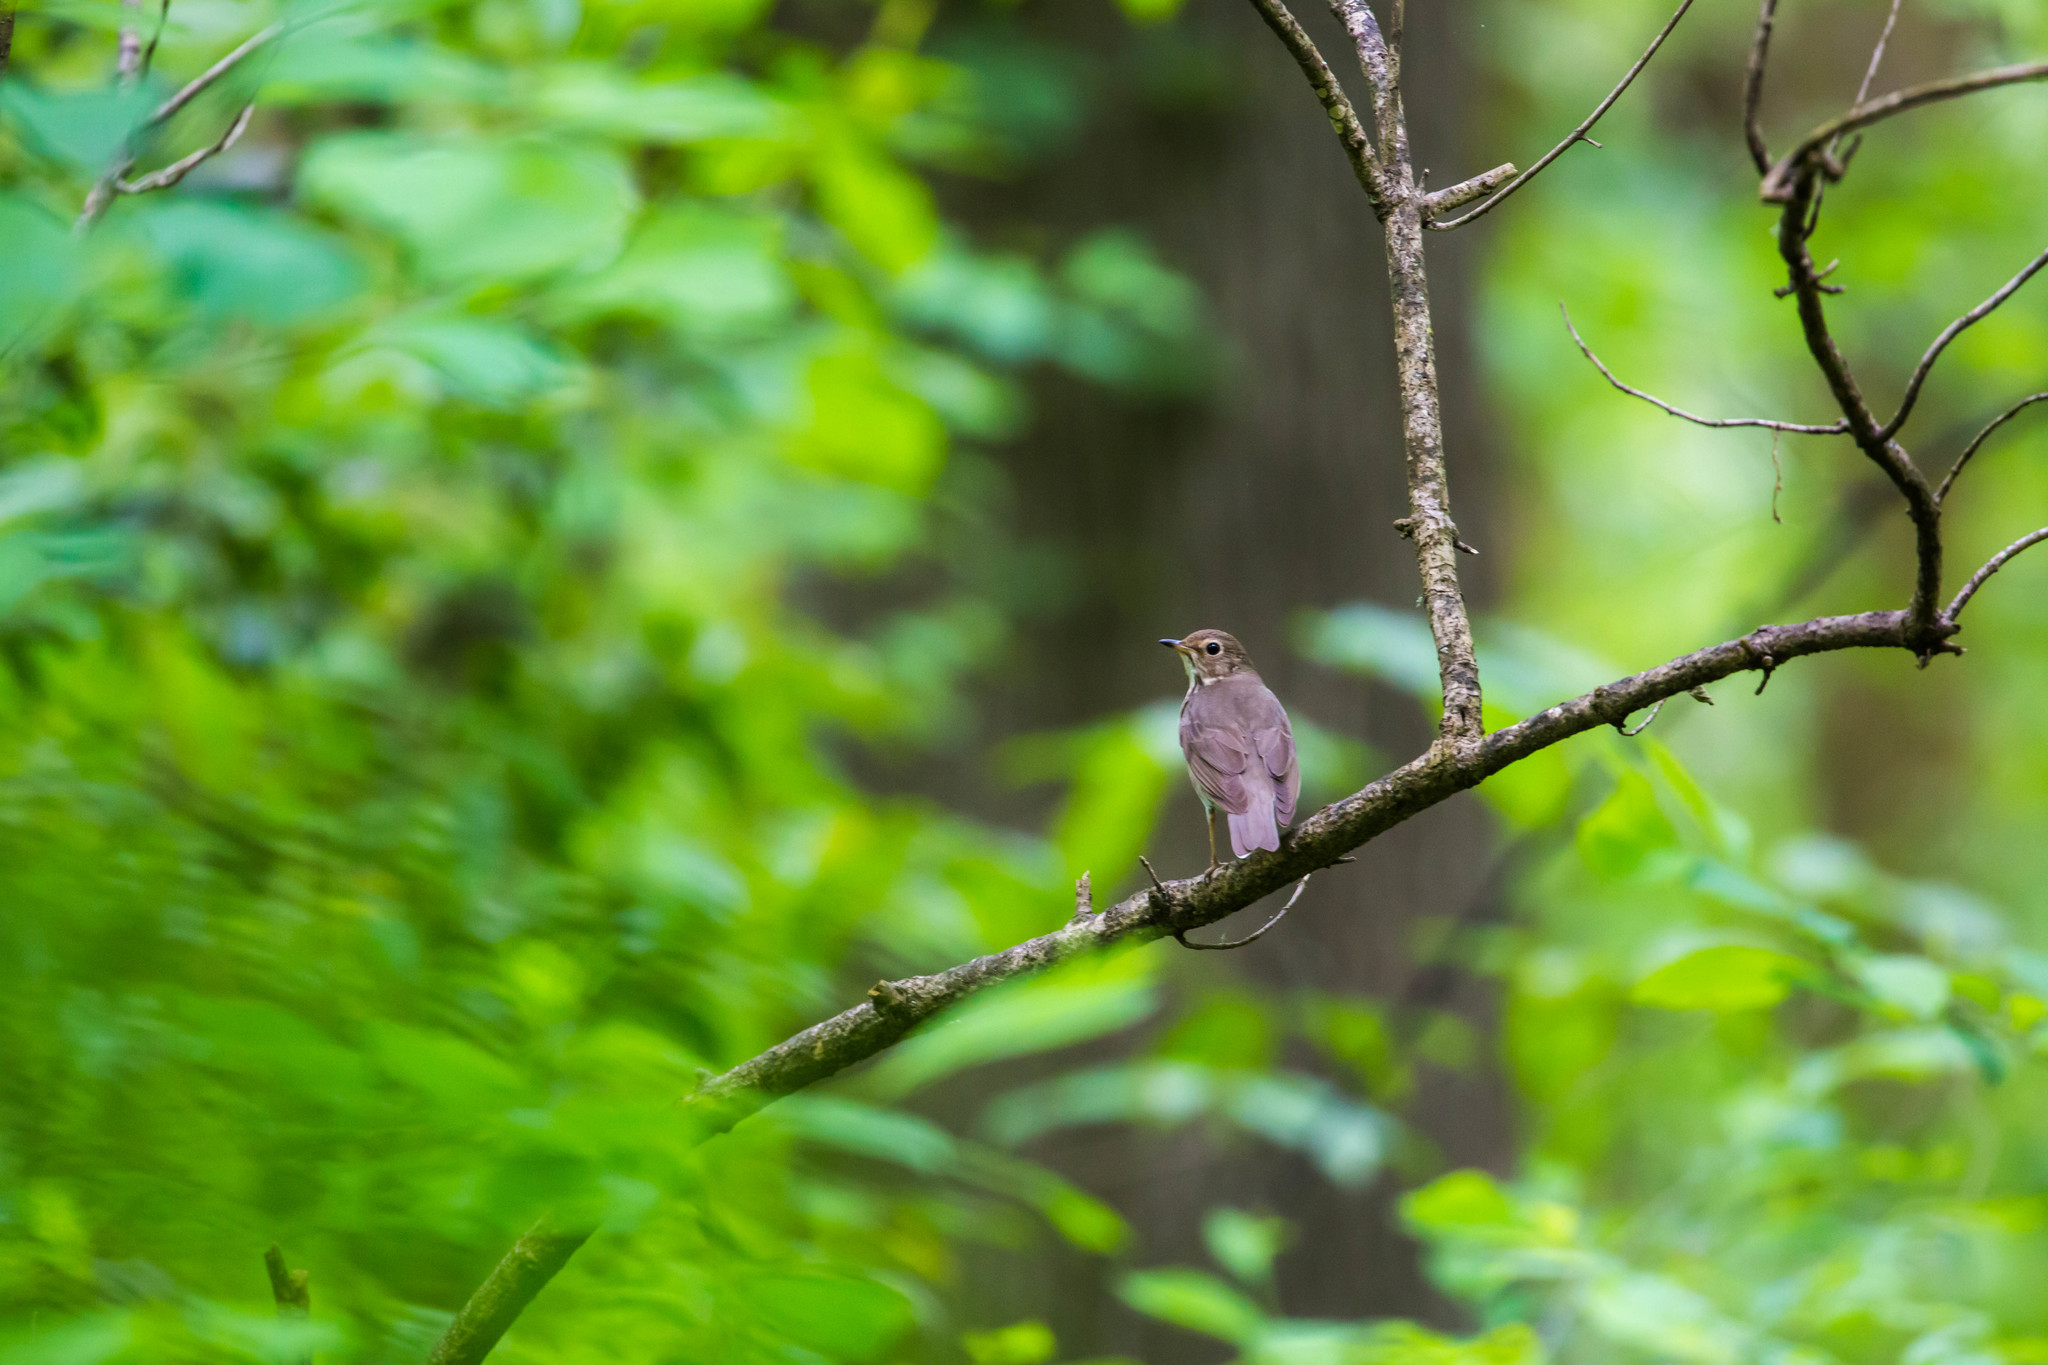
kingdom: Animalia
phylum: Chordata
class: Aves
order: Passeriformes
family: Turdidae
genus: Catharus
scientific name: Catharus ustulatus
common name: Swainson's thrush
